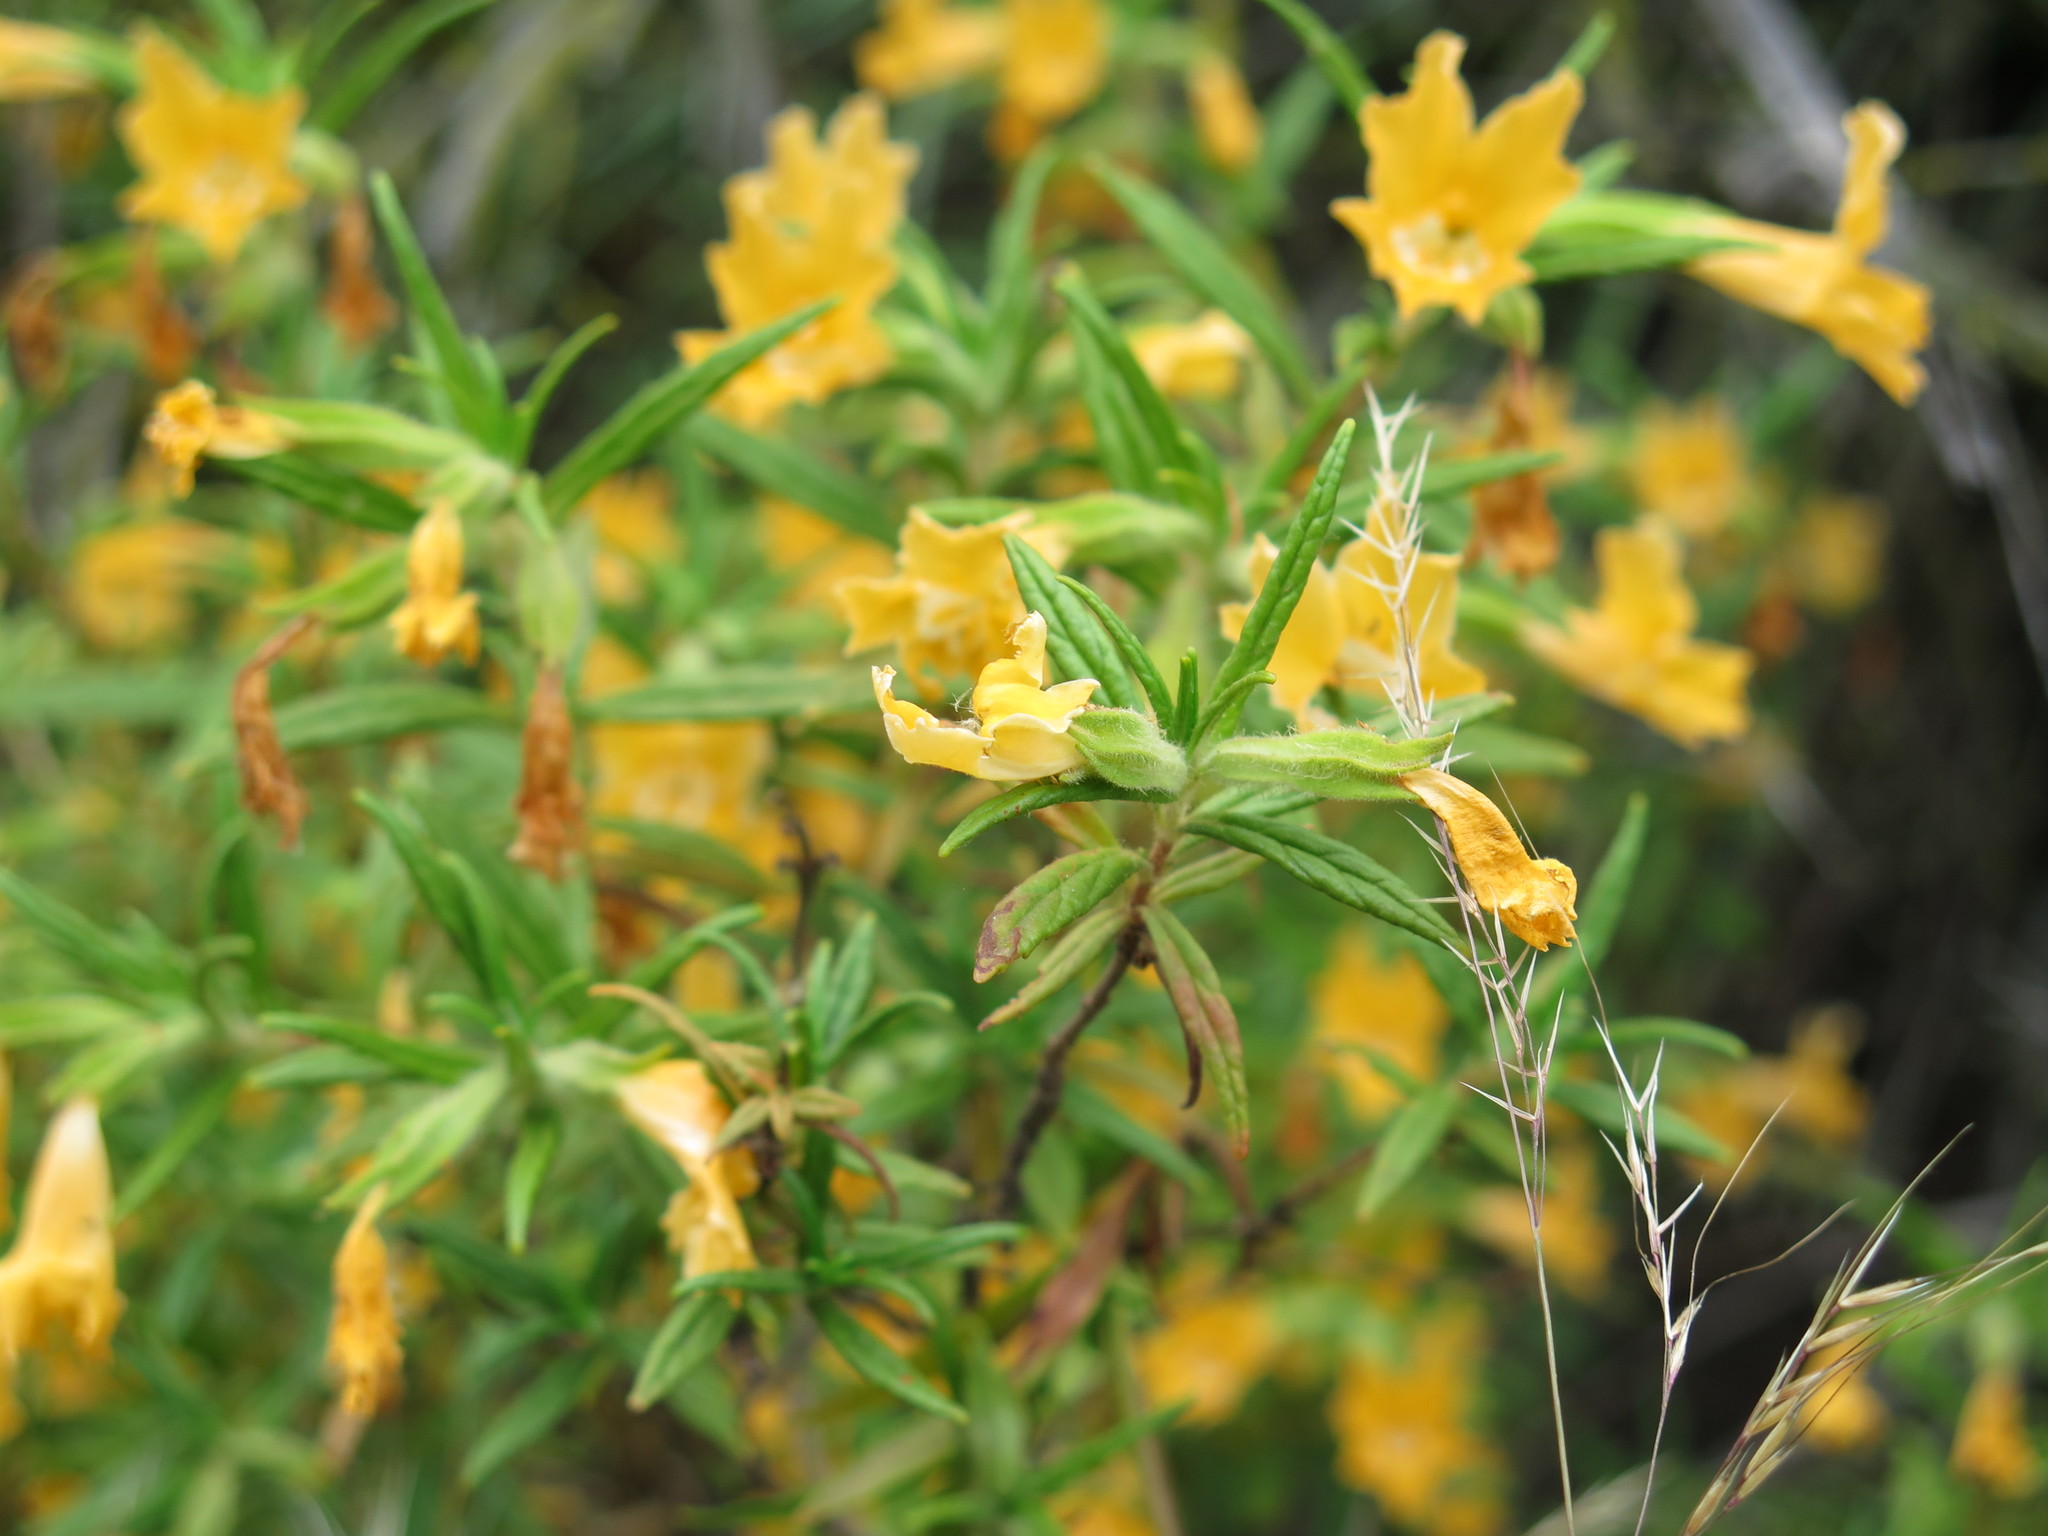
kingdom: Plantae
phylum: Tracheophyta
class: Magnoliopsida
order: Lamiales
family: Phrymaceae
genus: Diplacus
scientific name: Diplacus longiflorus
